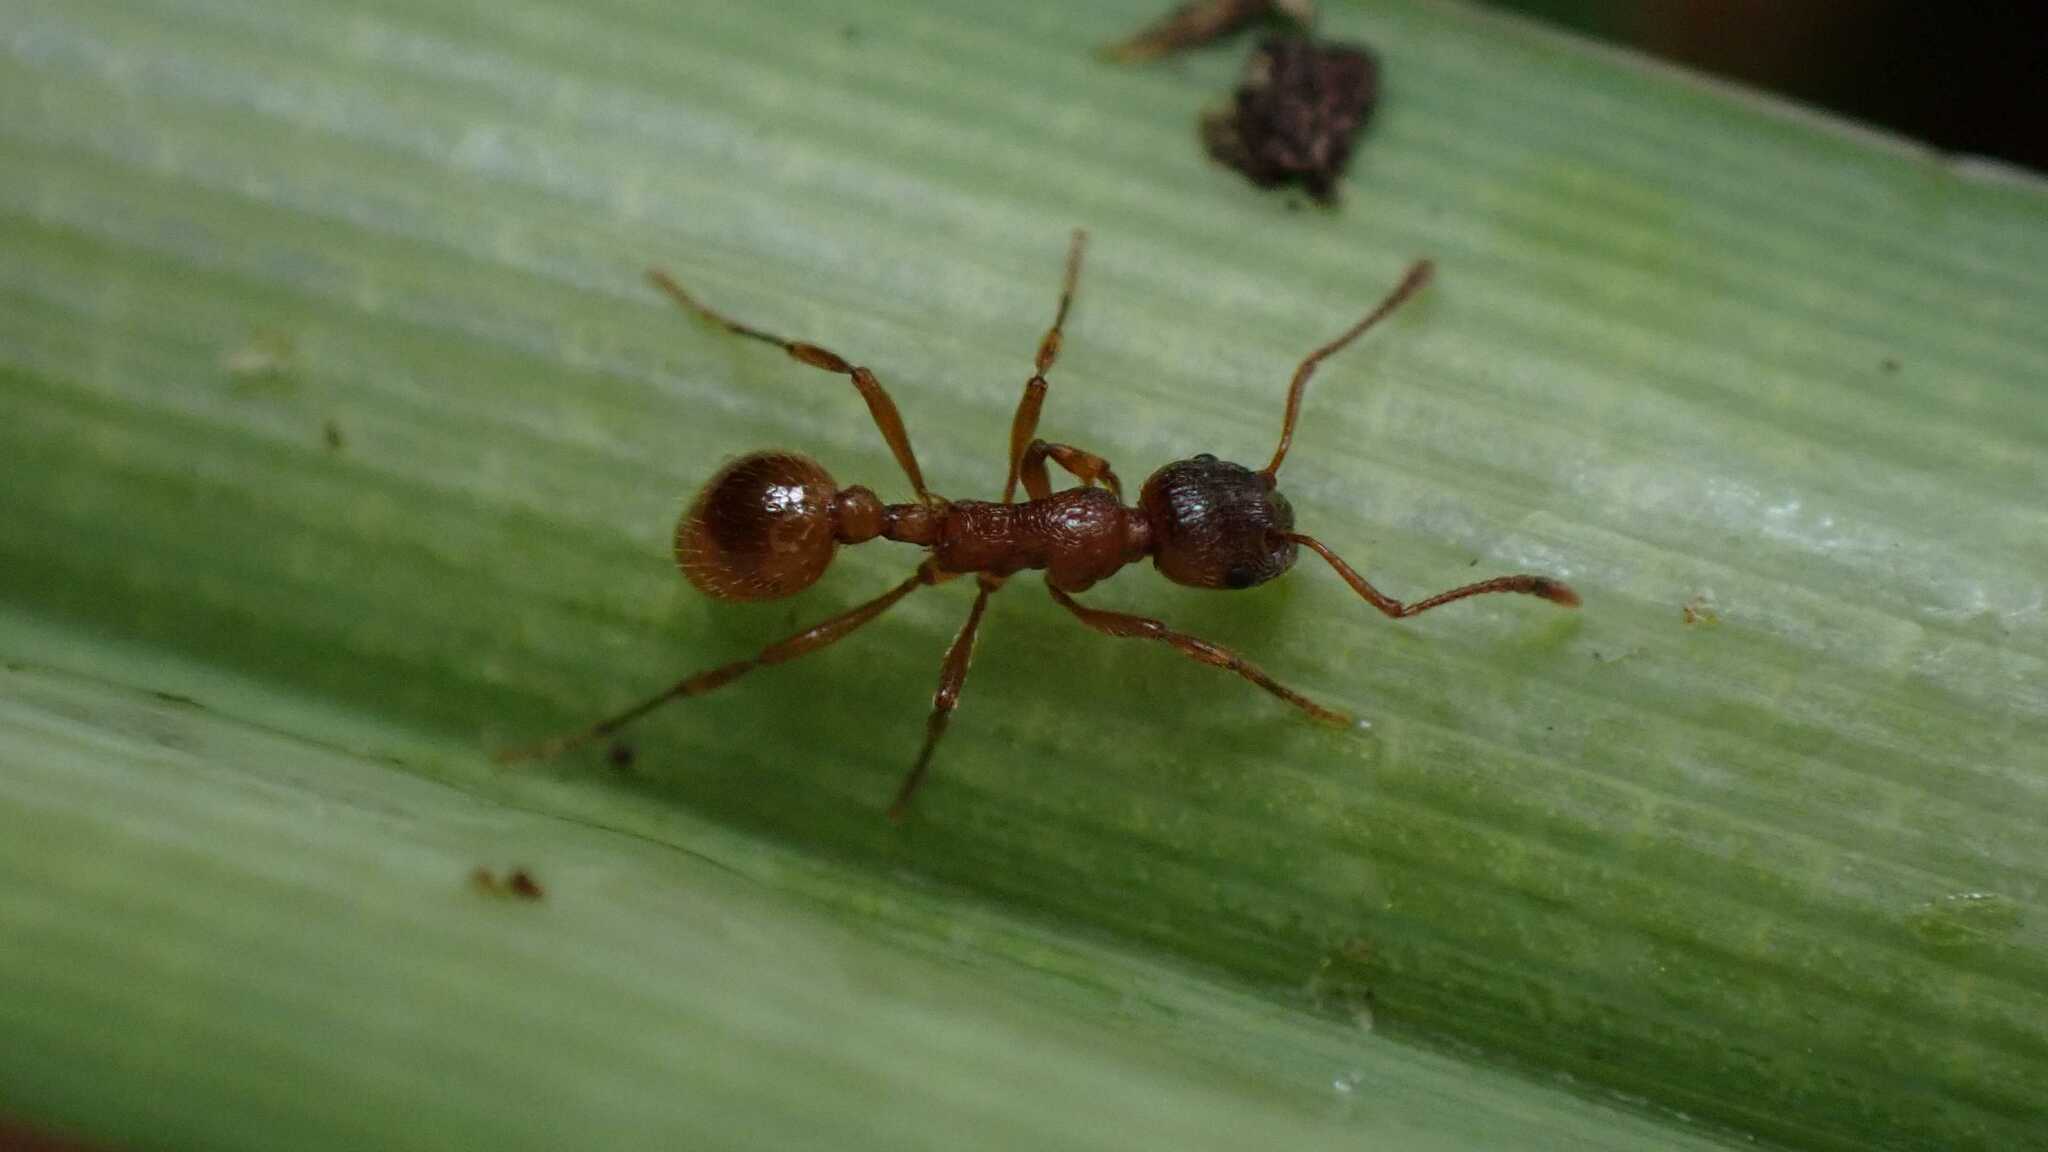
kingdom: Animalia
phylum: Arthropoda
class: Insecta
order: Hymenoptera
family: Formicidae
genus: Myrmica
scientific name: Myrmica rubra
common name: European fire ant
